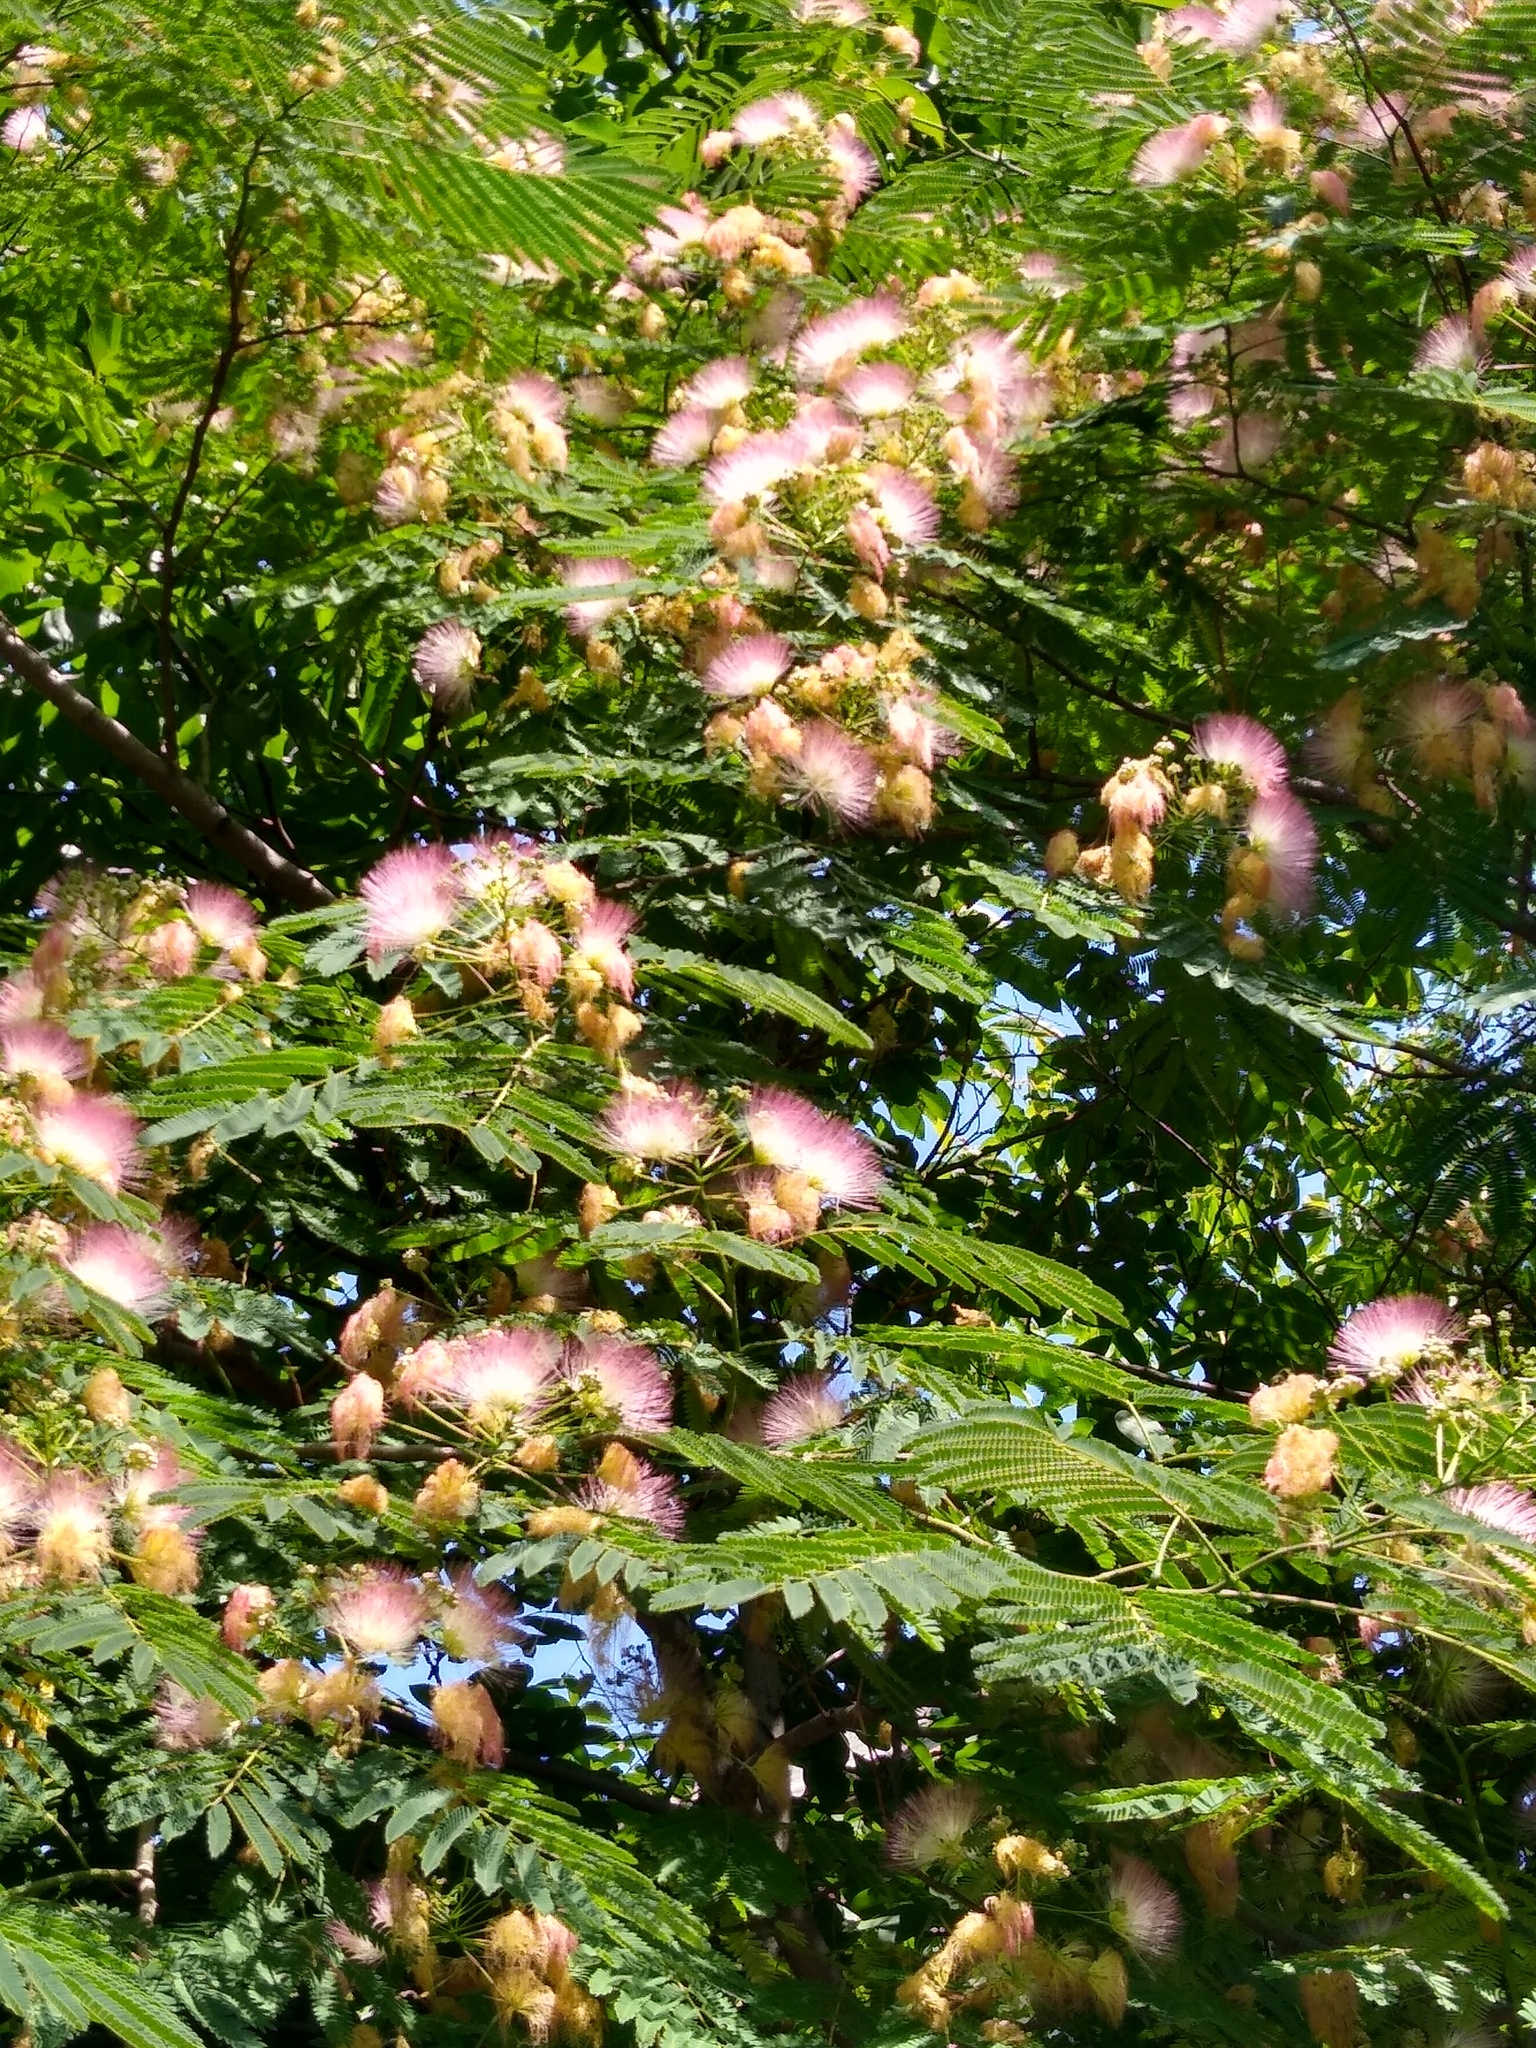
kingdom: Plantae
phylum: Tracheophyta
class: Magnoliopsida
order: Fabales
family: Fabaceae
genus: Albizia
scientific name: Albizia julibrissin
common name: Silktree
